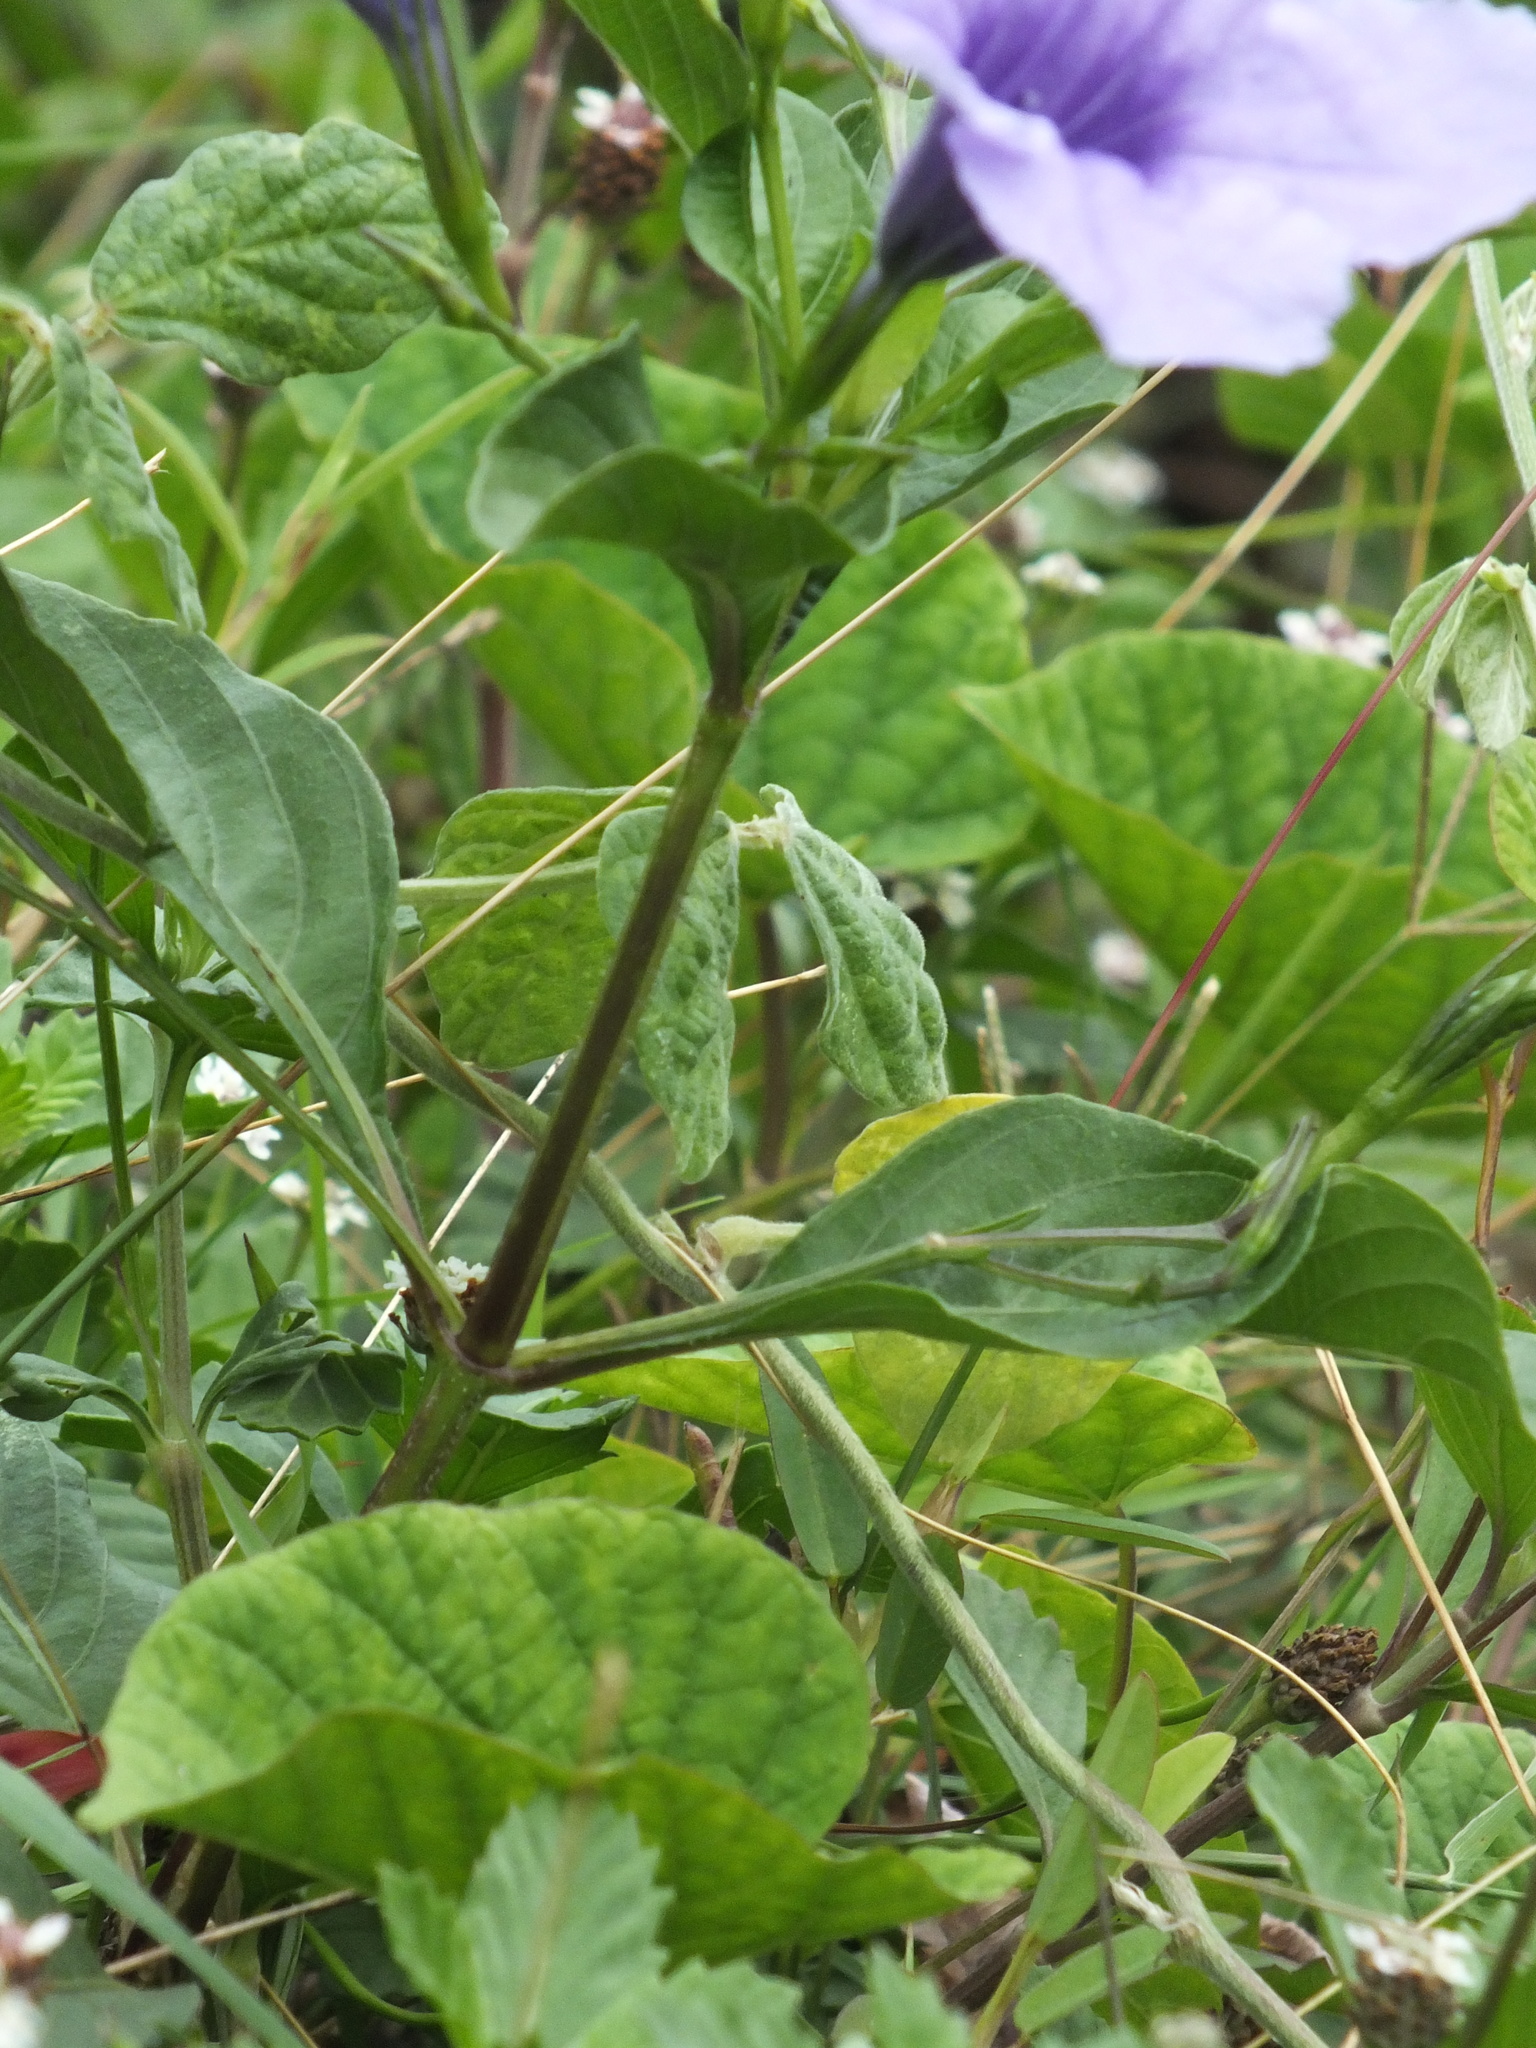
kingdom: Plantae
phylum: Tracheophyta
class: Magnoliopsida
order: Lamiales
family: Acanthaceae
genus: Ruellia
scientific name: Ruellia tuberosa
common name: Devil's bit
